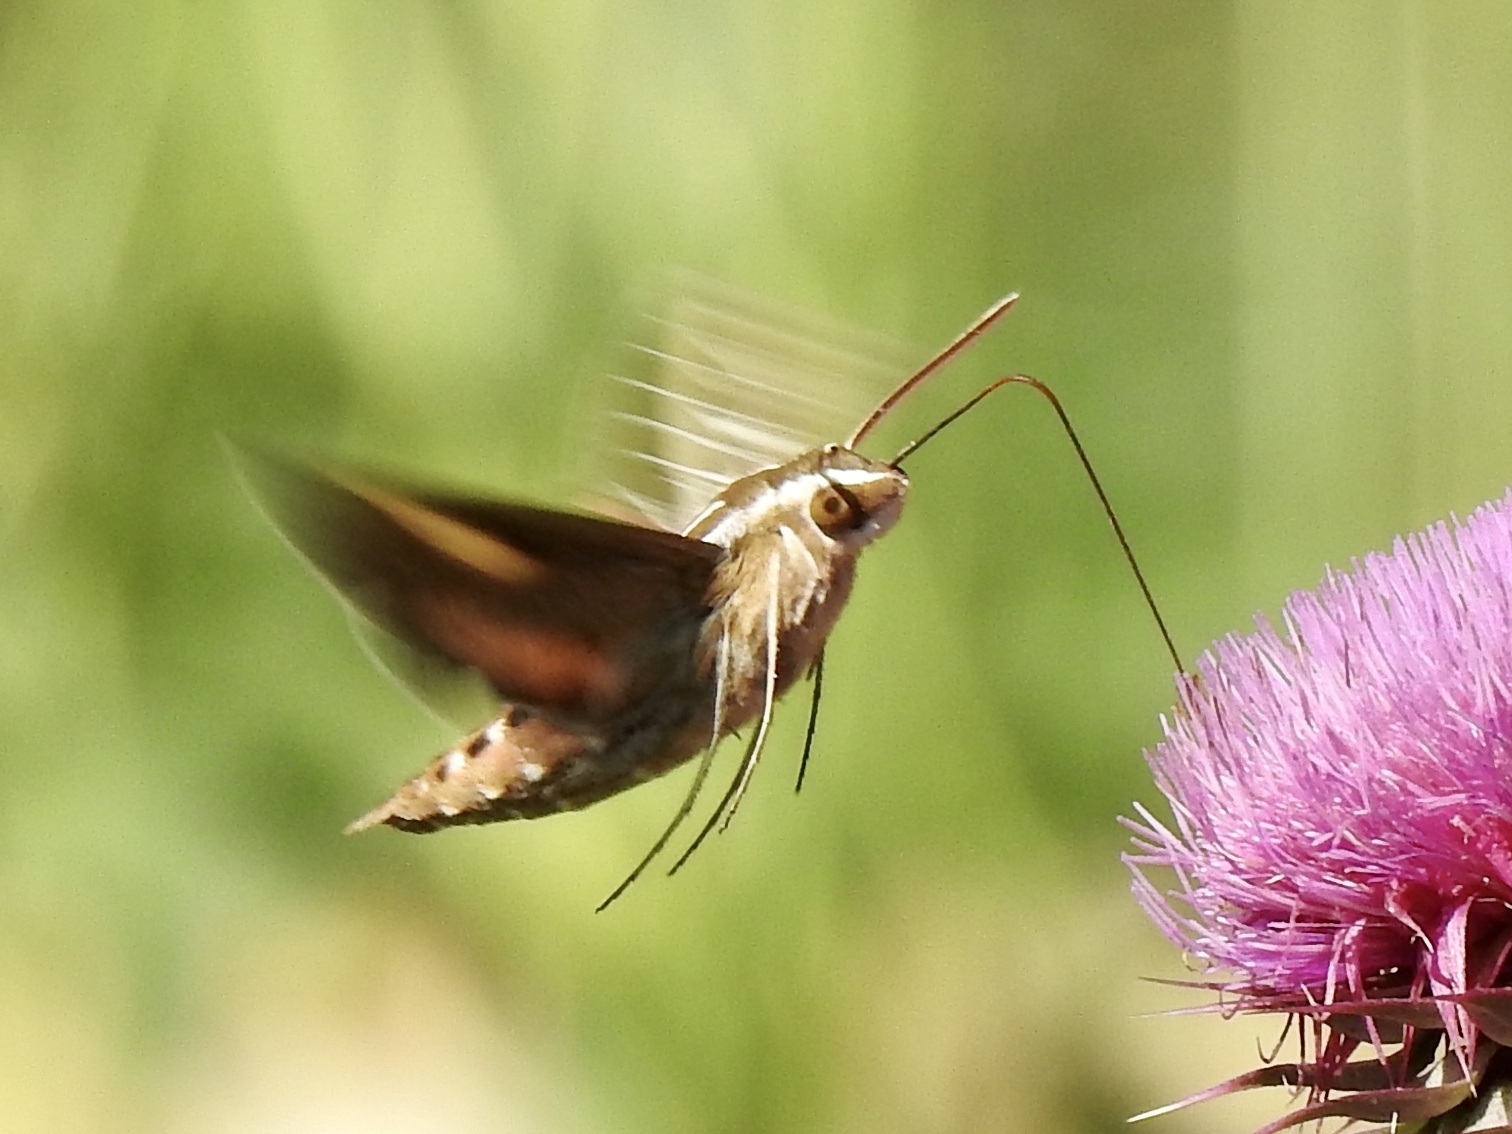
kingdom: Animalia
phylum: Arthropoda
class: Insecta
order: Lepidoptera
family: Sphingidae
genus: Hyles
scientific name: Hyles lineata
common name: White-lined sphinx
